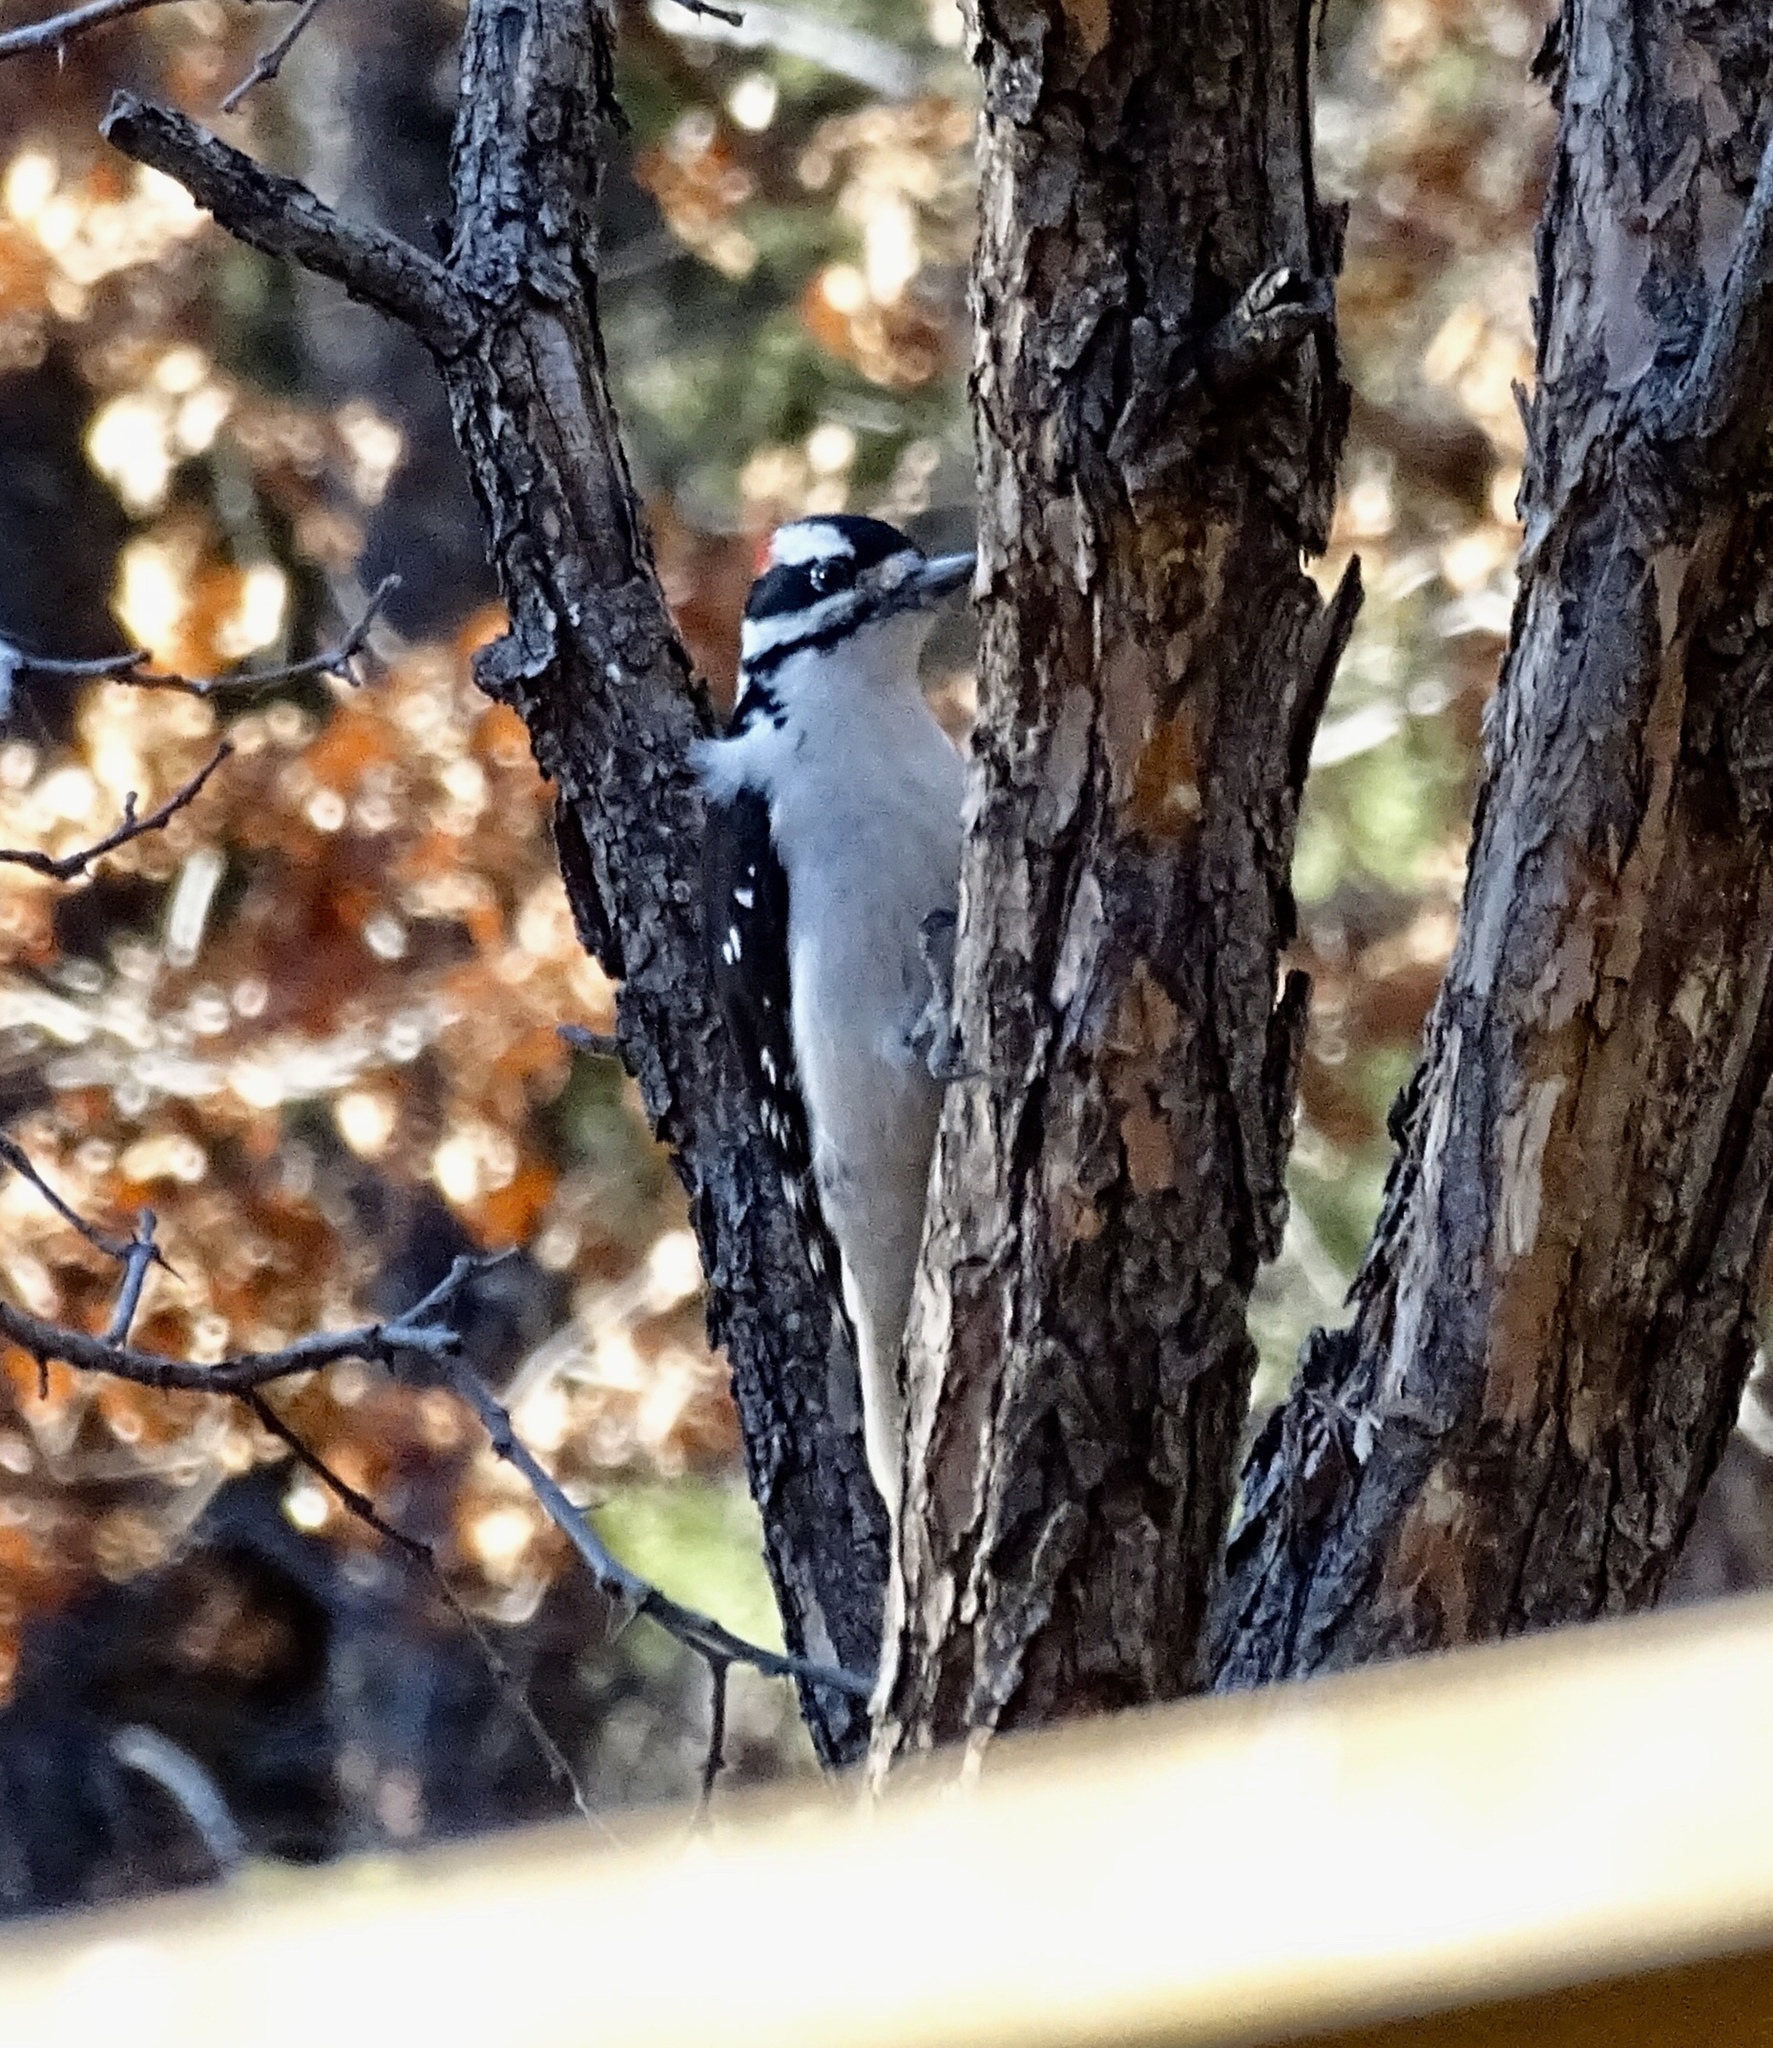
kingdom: Animalia
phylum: Chordata
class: Aves
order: Piciformes
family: Picidae
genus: Leuconotopicus
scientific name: Leuconotopicus villosus
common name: Hairy woodpecker
